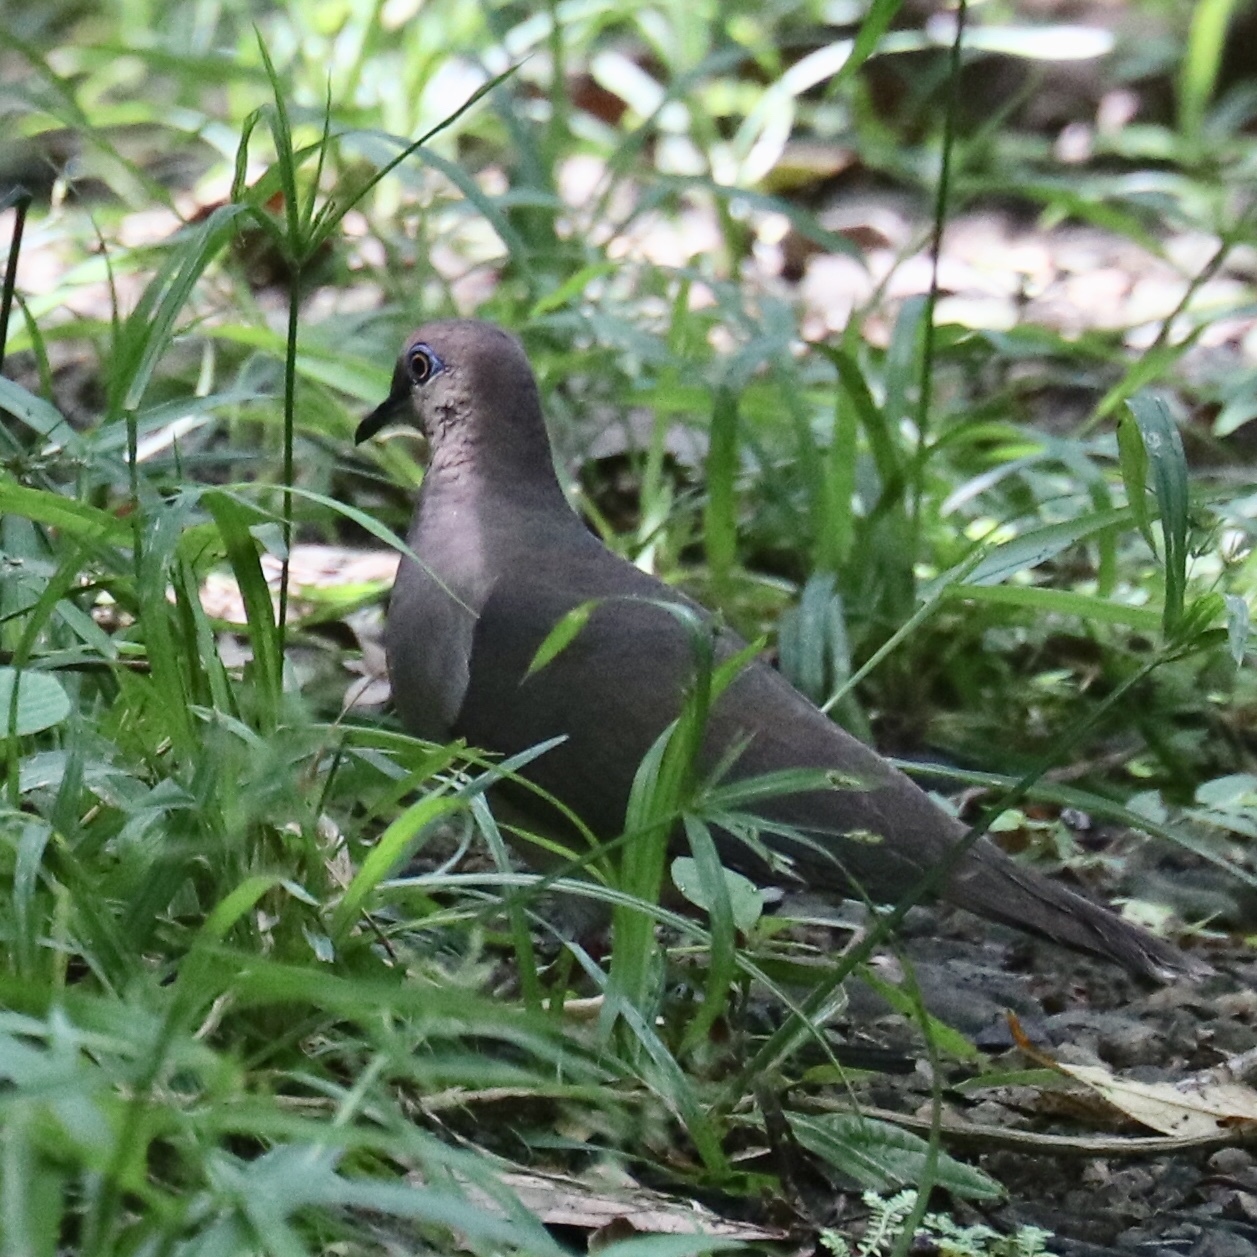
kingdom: Animalia
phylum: Chordata
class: Aves
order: Columbiformes
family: Columbidae
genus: Leptotila
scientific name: Leptotila verreauxi
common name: White-tipped dove
